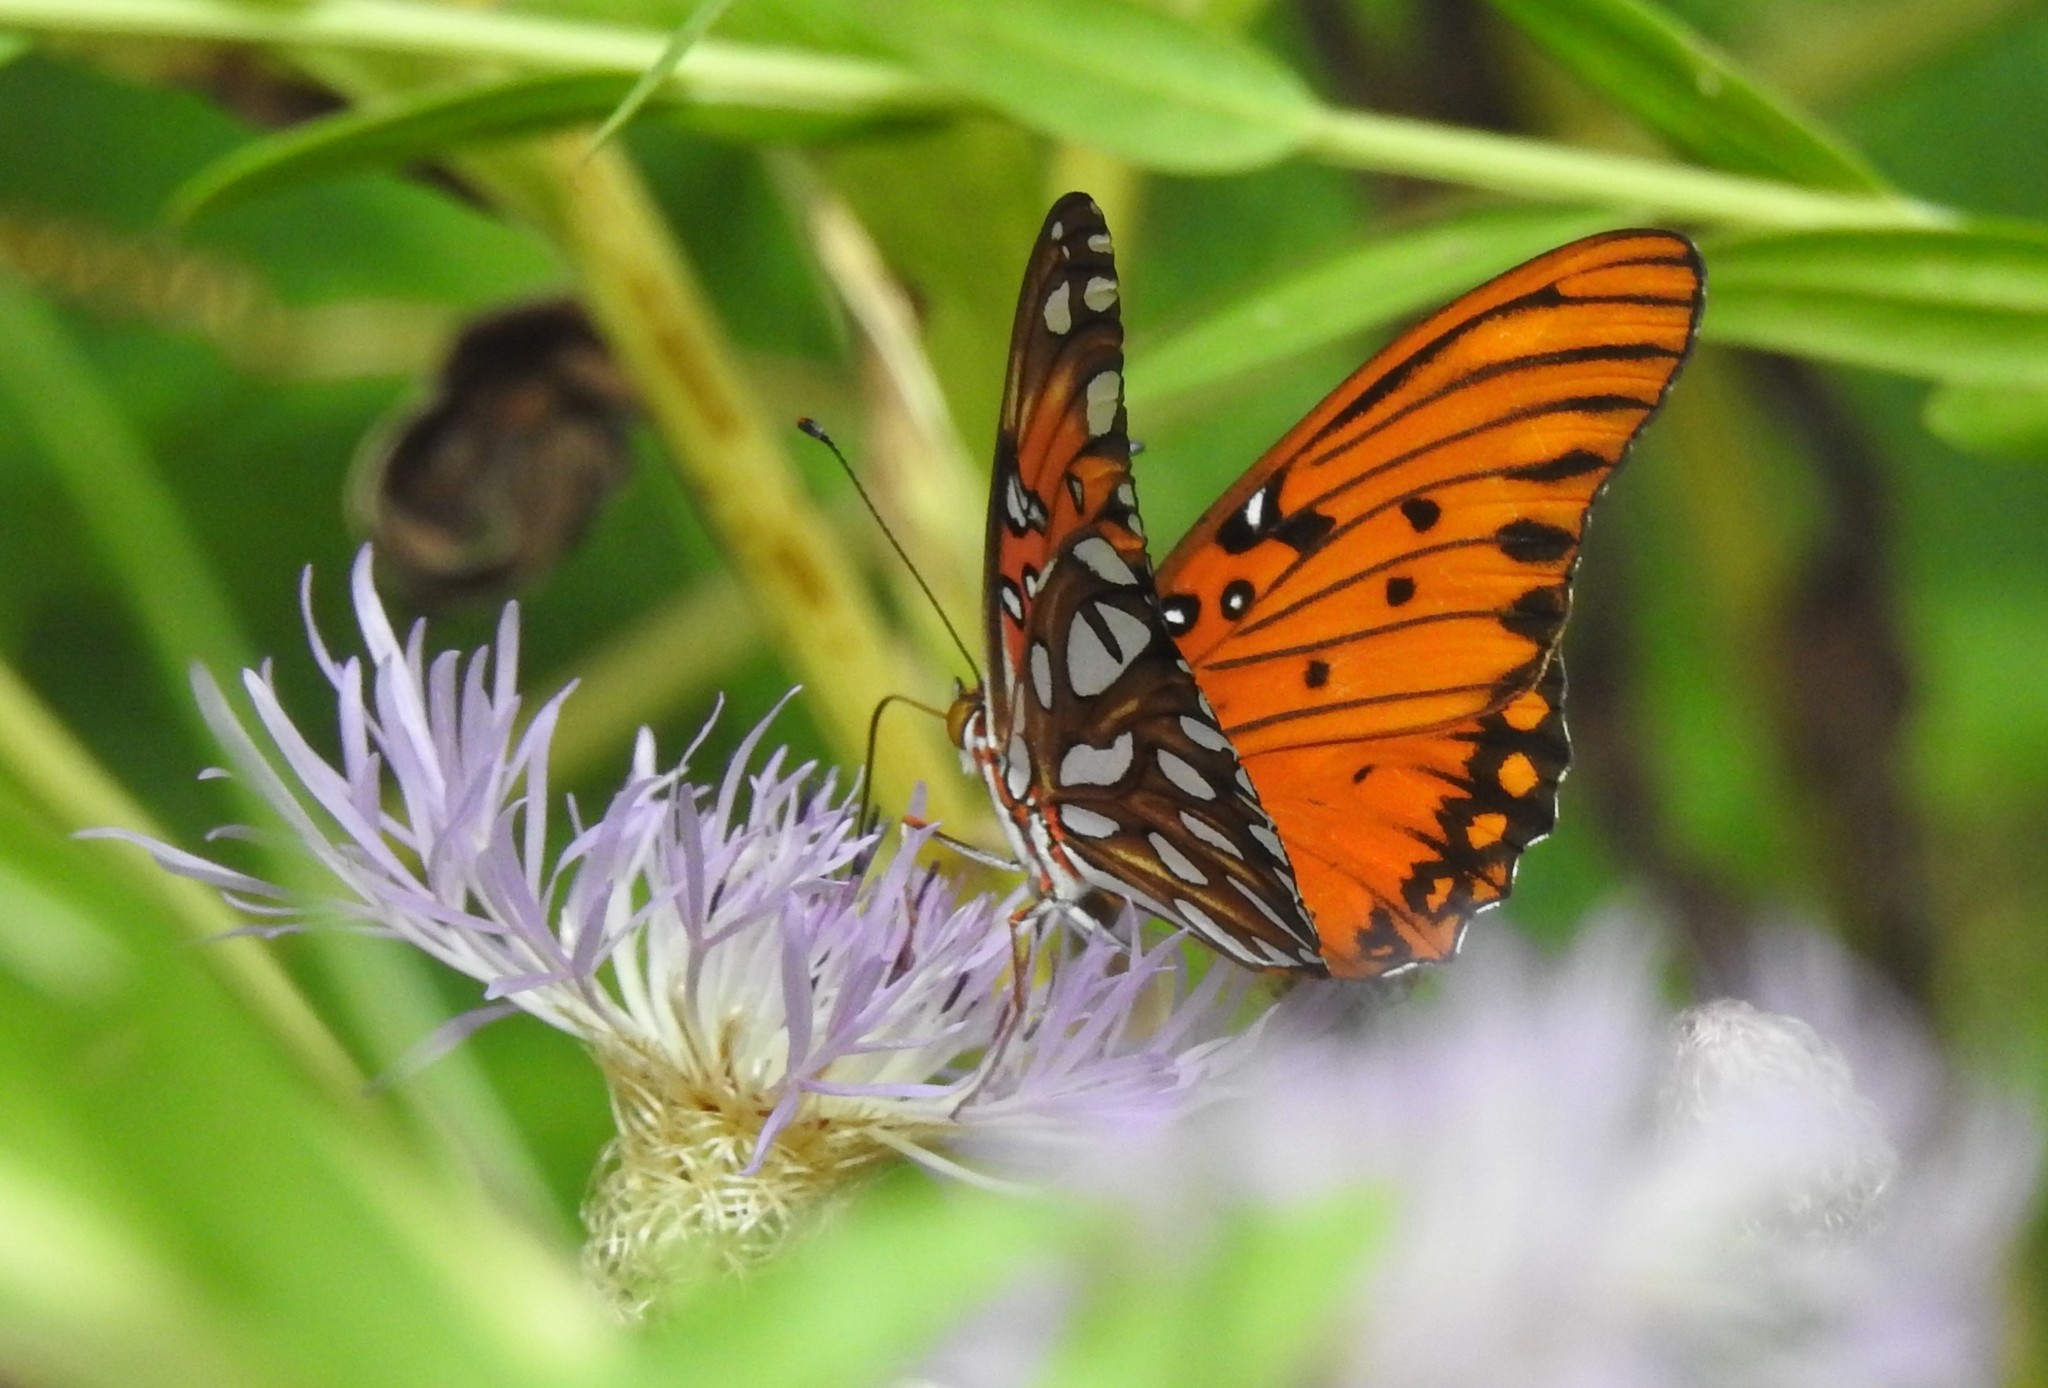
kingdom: Animalia
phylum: Arthropoda
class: Insecta
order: Lepidoptera
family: Nymphalidae
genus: Dione
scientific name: Dione vanillae
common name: Gulf fritillary
